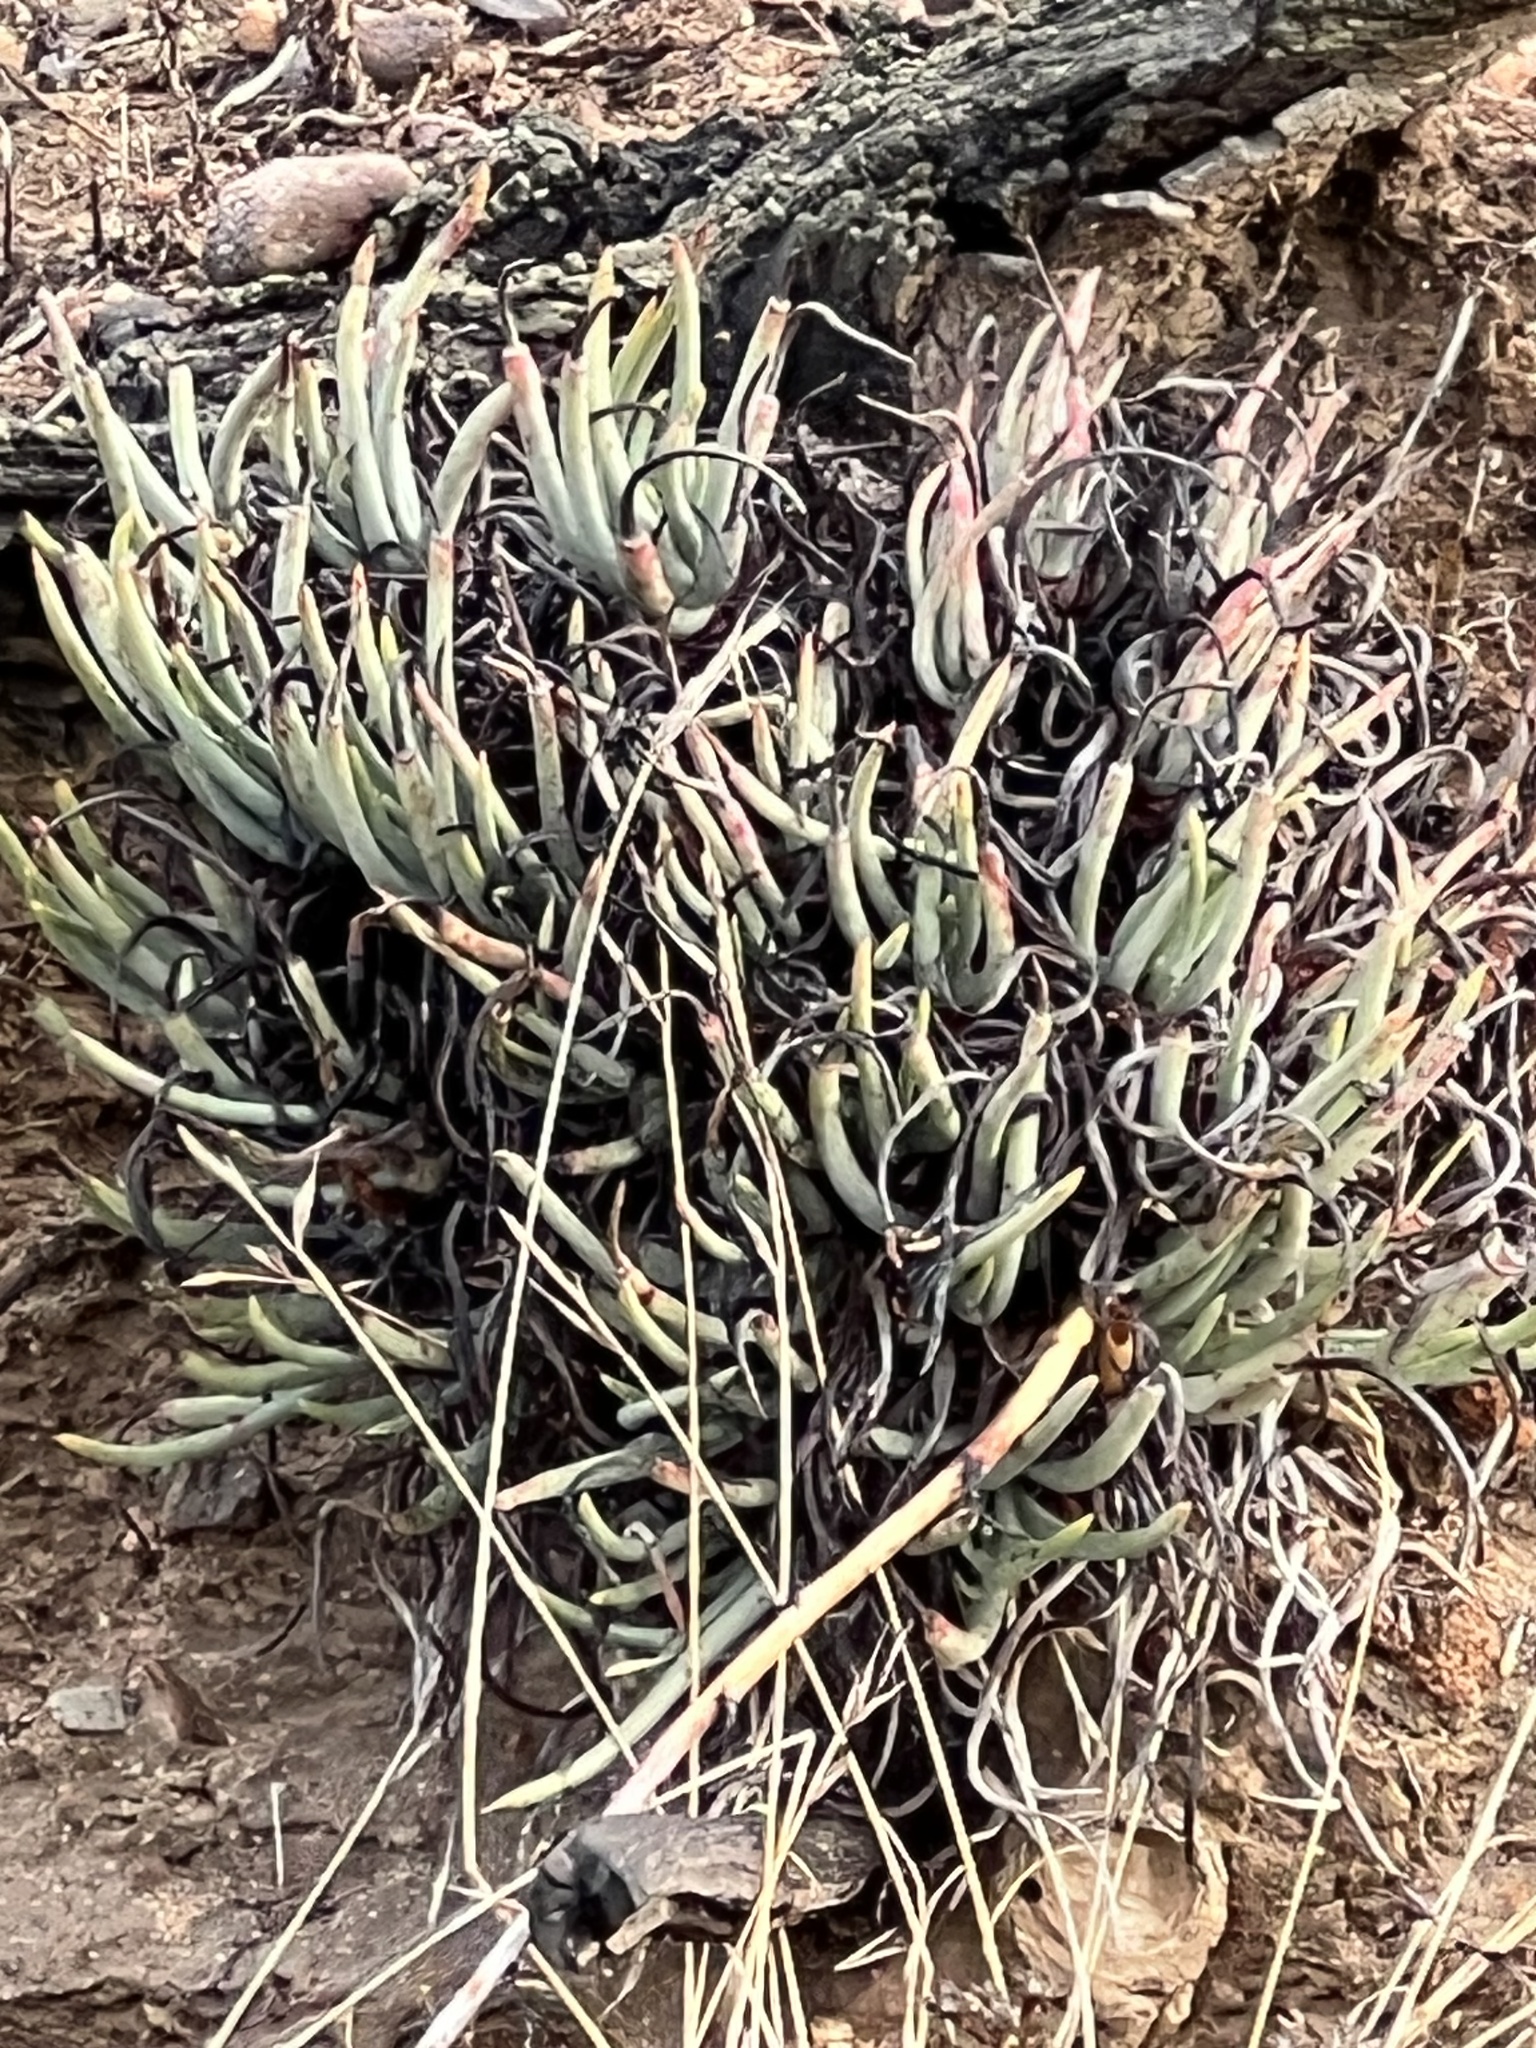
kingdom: Plantae
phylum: Tracheophyta
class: Magnoliopsida
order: Saxifragales
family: Crassulaceae
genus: Dudleya
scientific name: Dudleya edulis
